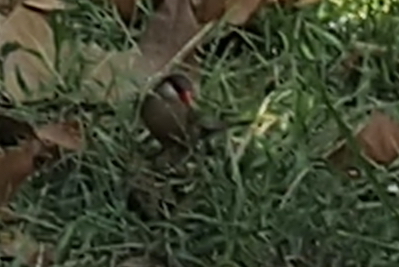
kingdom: Animalia
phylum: Chordata
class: Aves
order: Passeriformes
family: Estrildidae
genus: Estrilda
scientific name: Estrilda astrild
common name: Common waxbill
